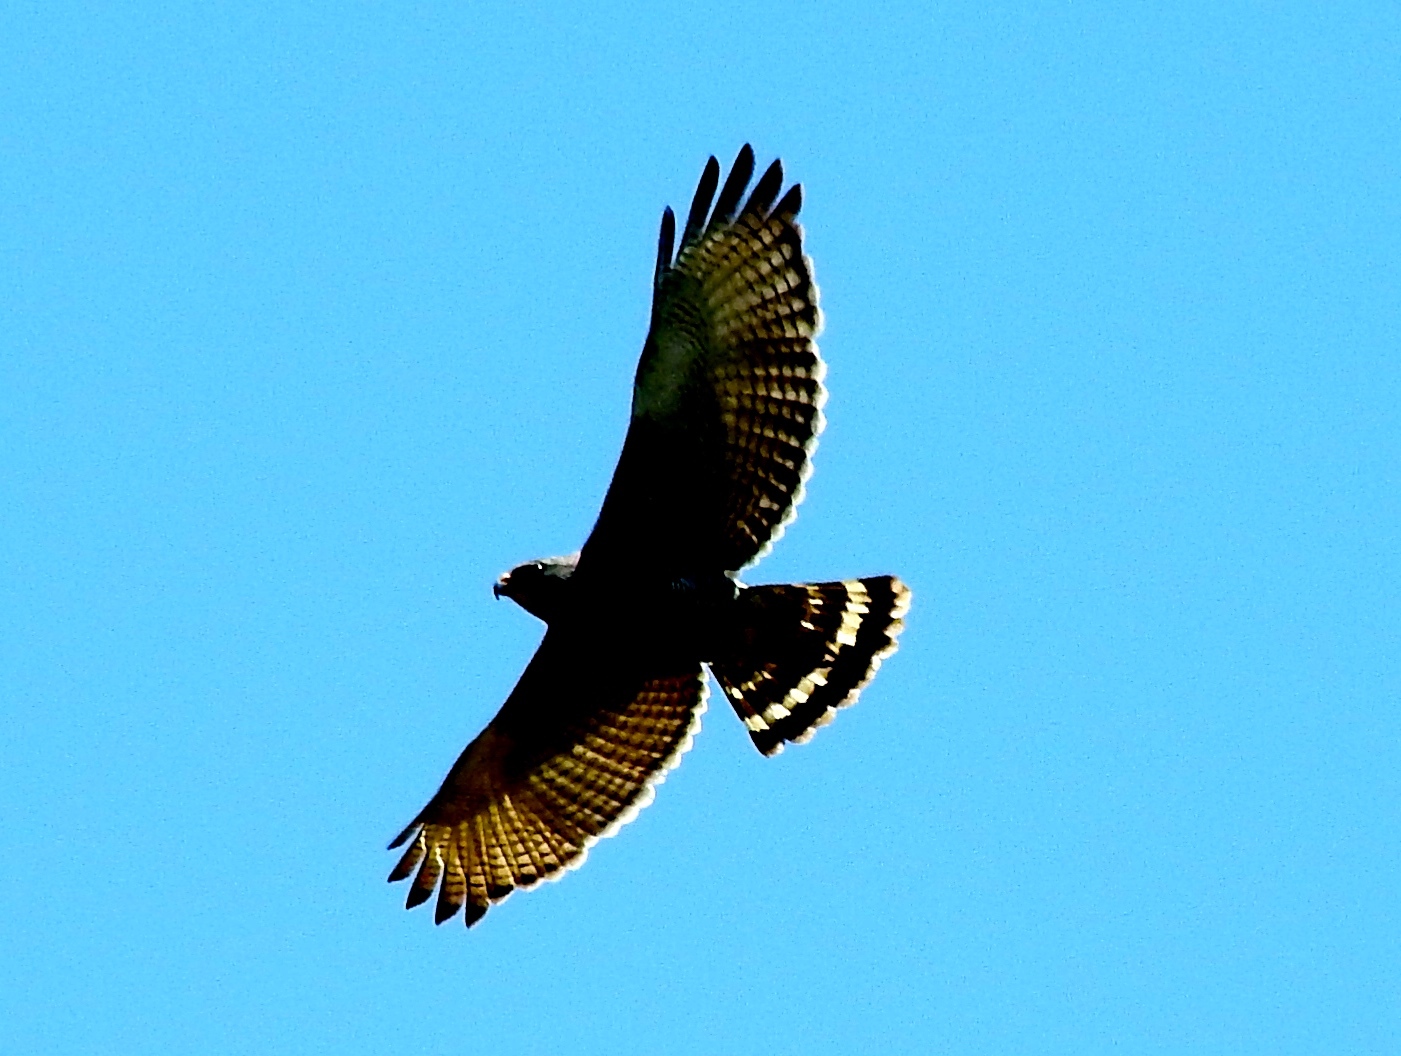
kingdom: Animalia
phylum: Chordata
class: Aves
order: Accipitriformes
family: Accipitridae
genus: Buteo
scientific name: Buteo nitidus
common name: Grey-lined hawk
